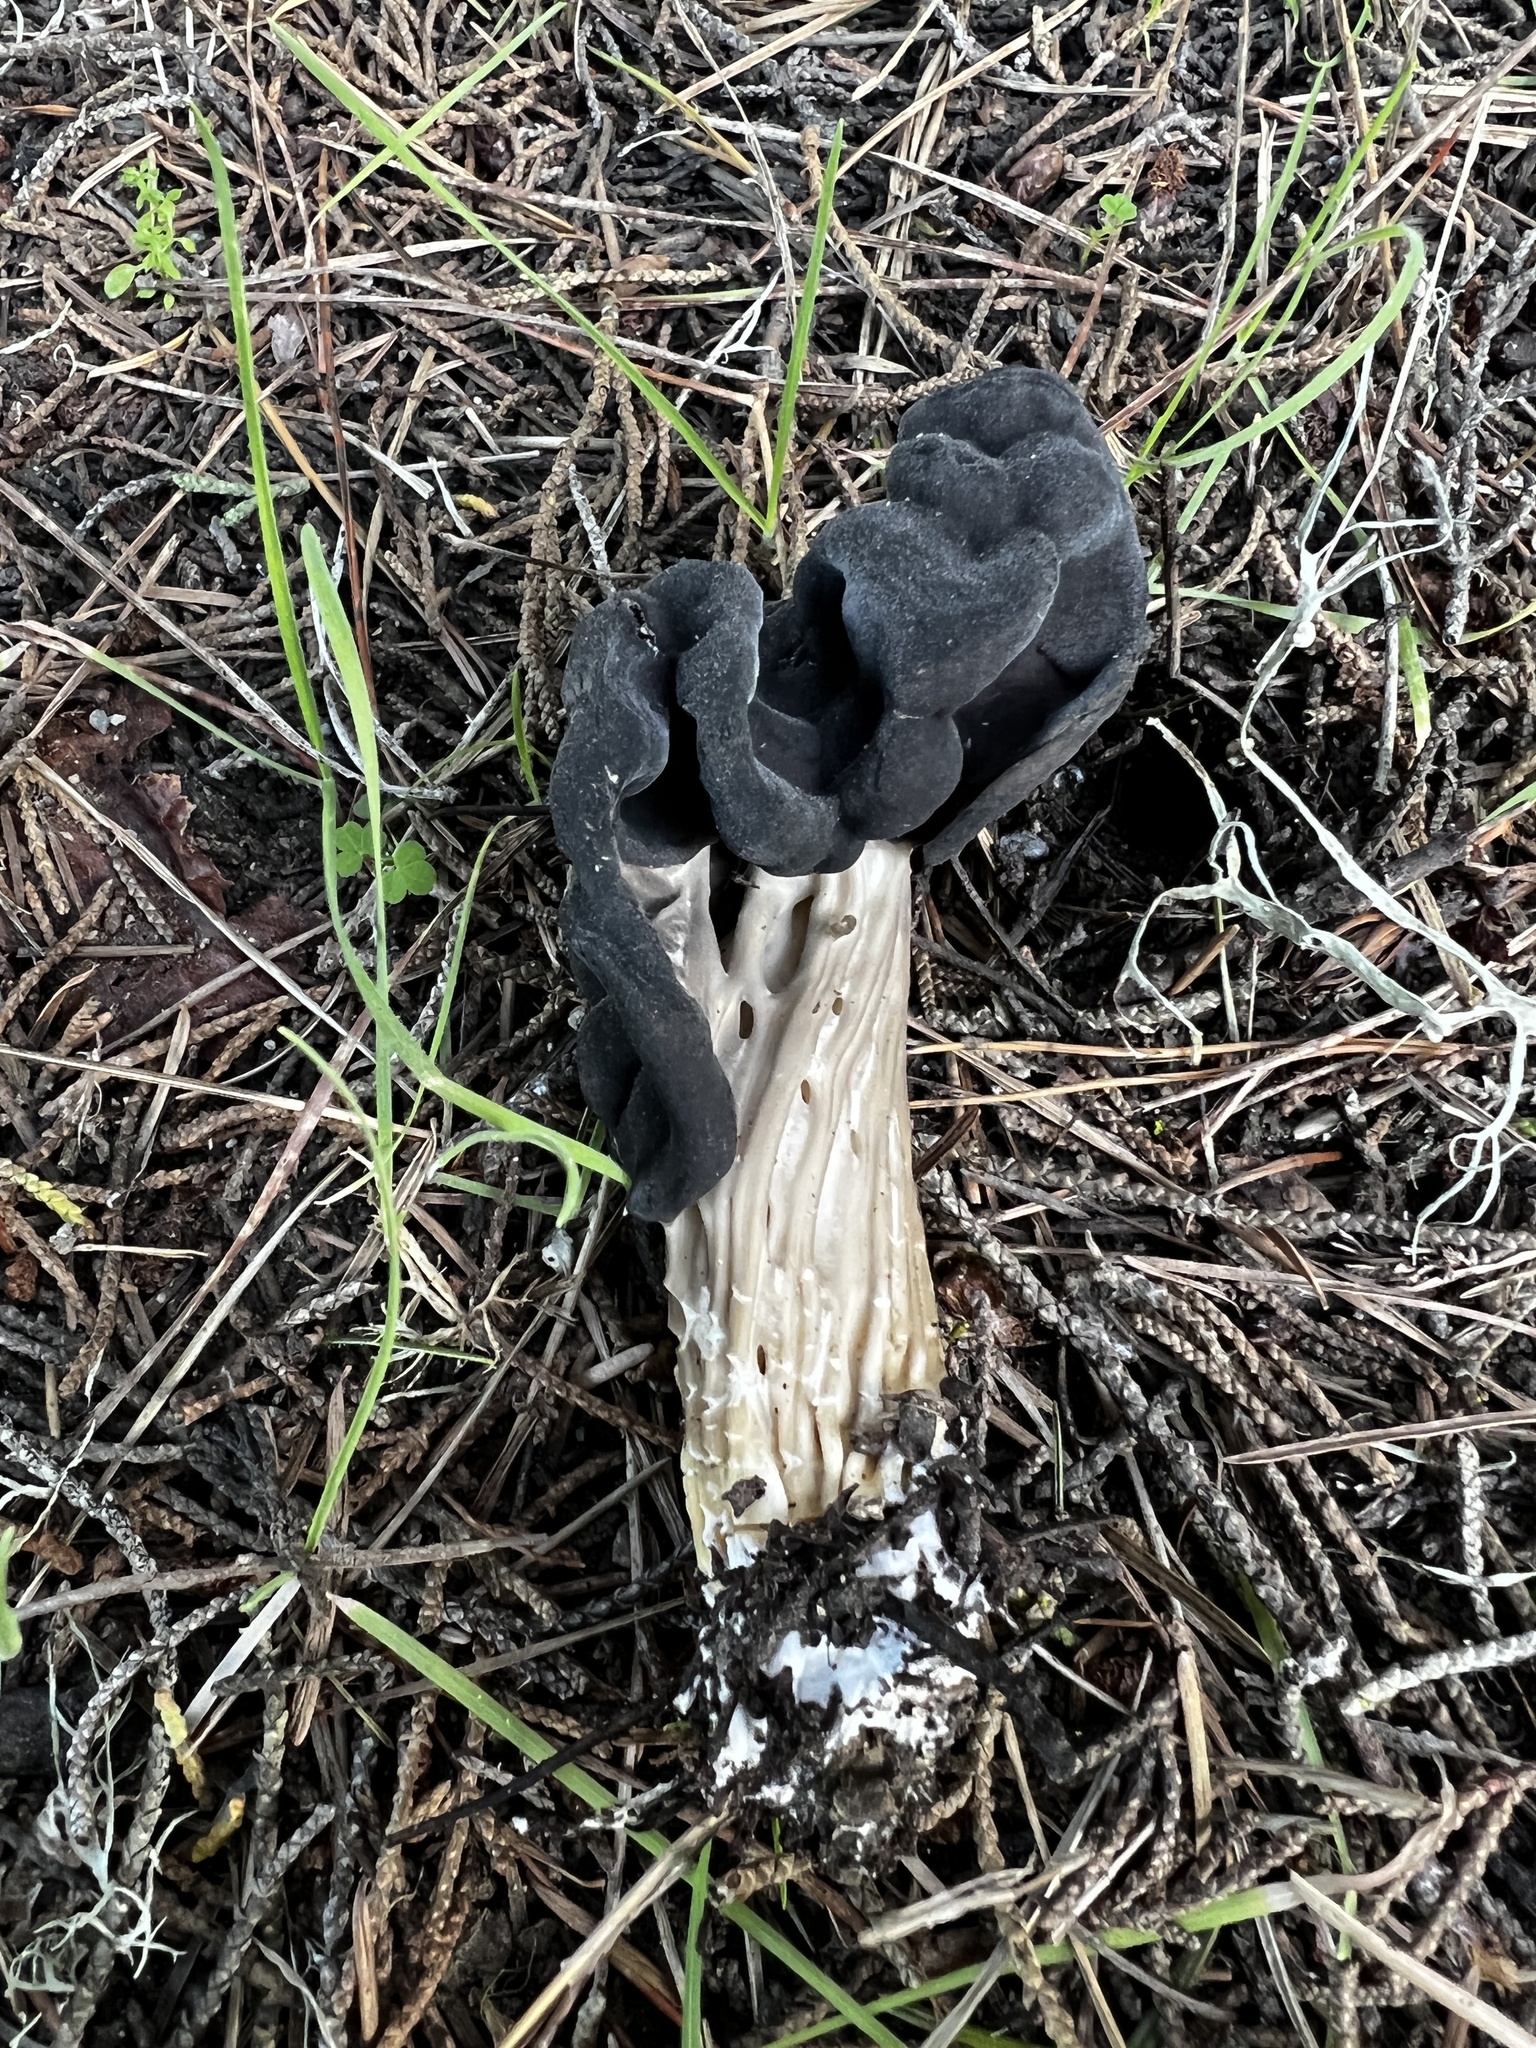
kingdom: Fungi
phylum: Ascomycota
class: Pezizomycetes
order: Pezizales
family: Helvellaceae
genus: Helvella
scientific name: Helvella vespertina
